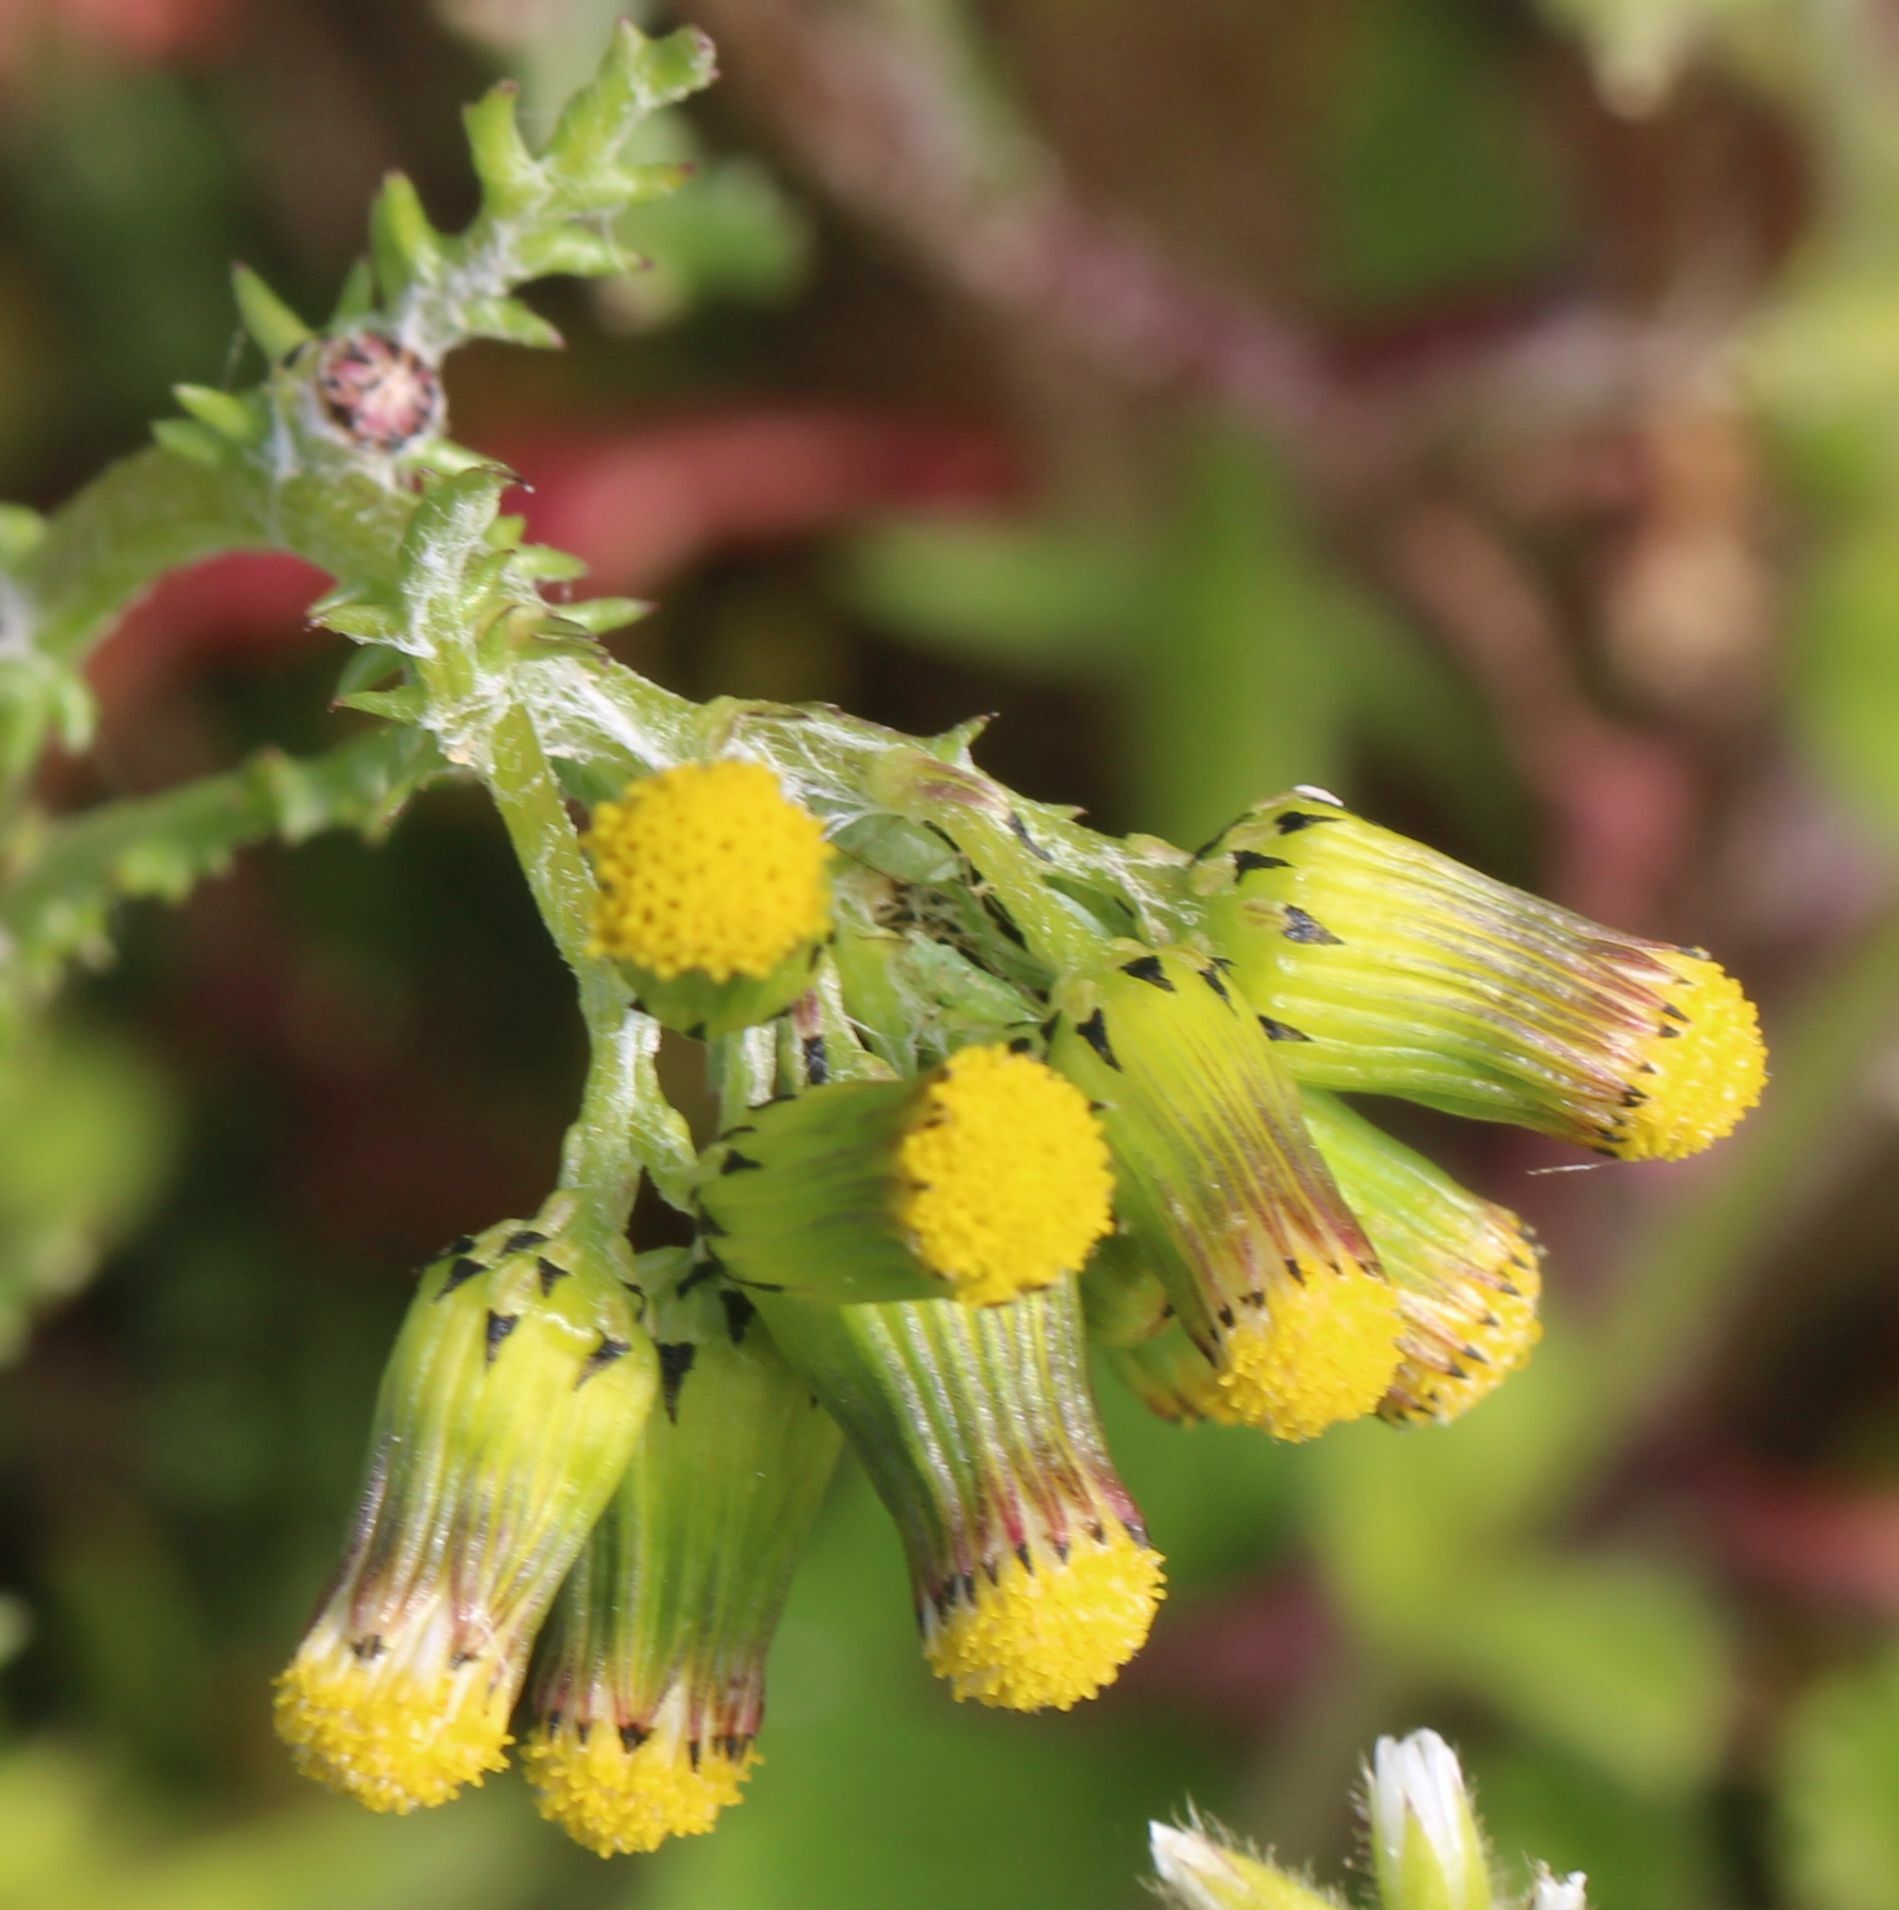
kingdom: Plantae
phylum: Tracheophyta
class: Magnoliopsida
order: Asterales
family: Asteraceae
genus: Senecio
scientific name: Senecio vulgaris
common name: Old-man-in-the-spring
